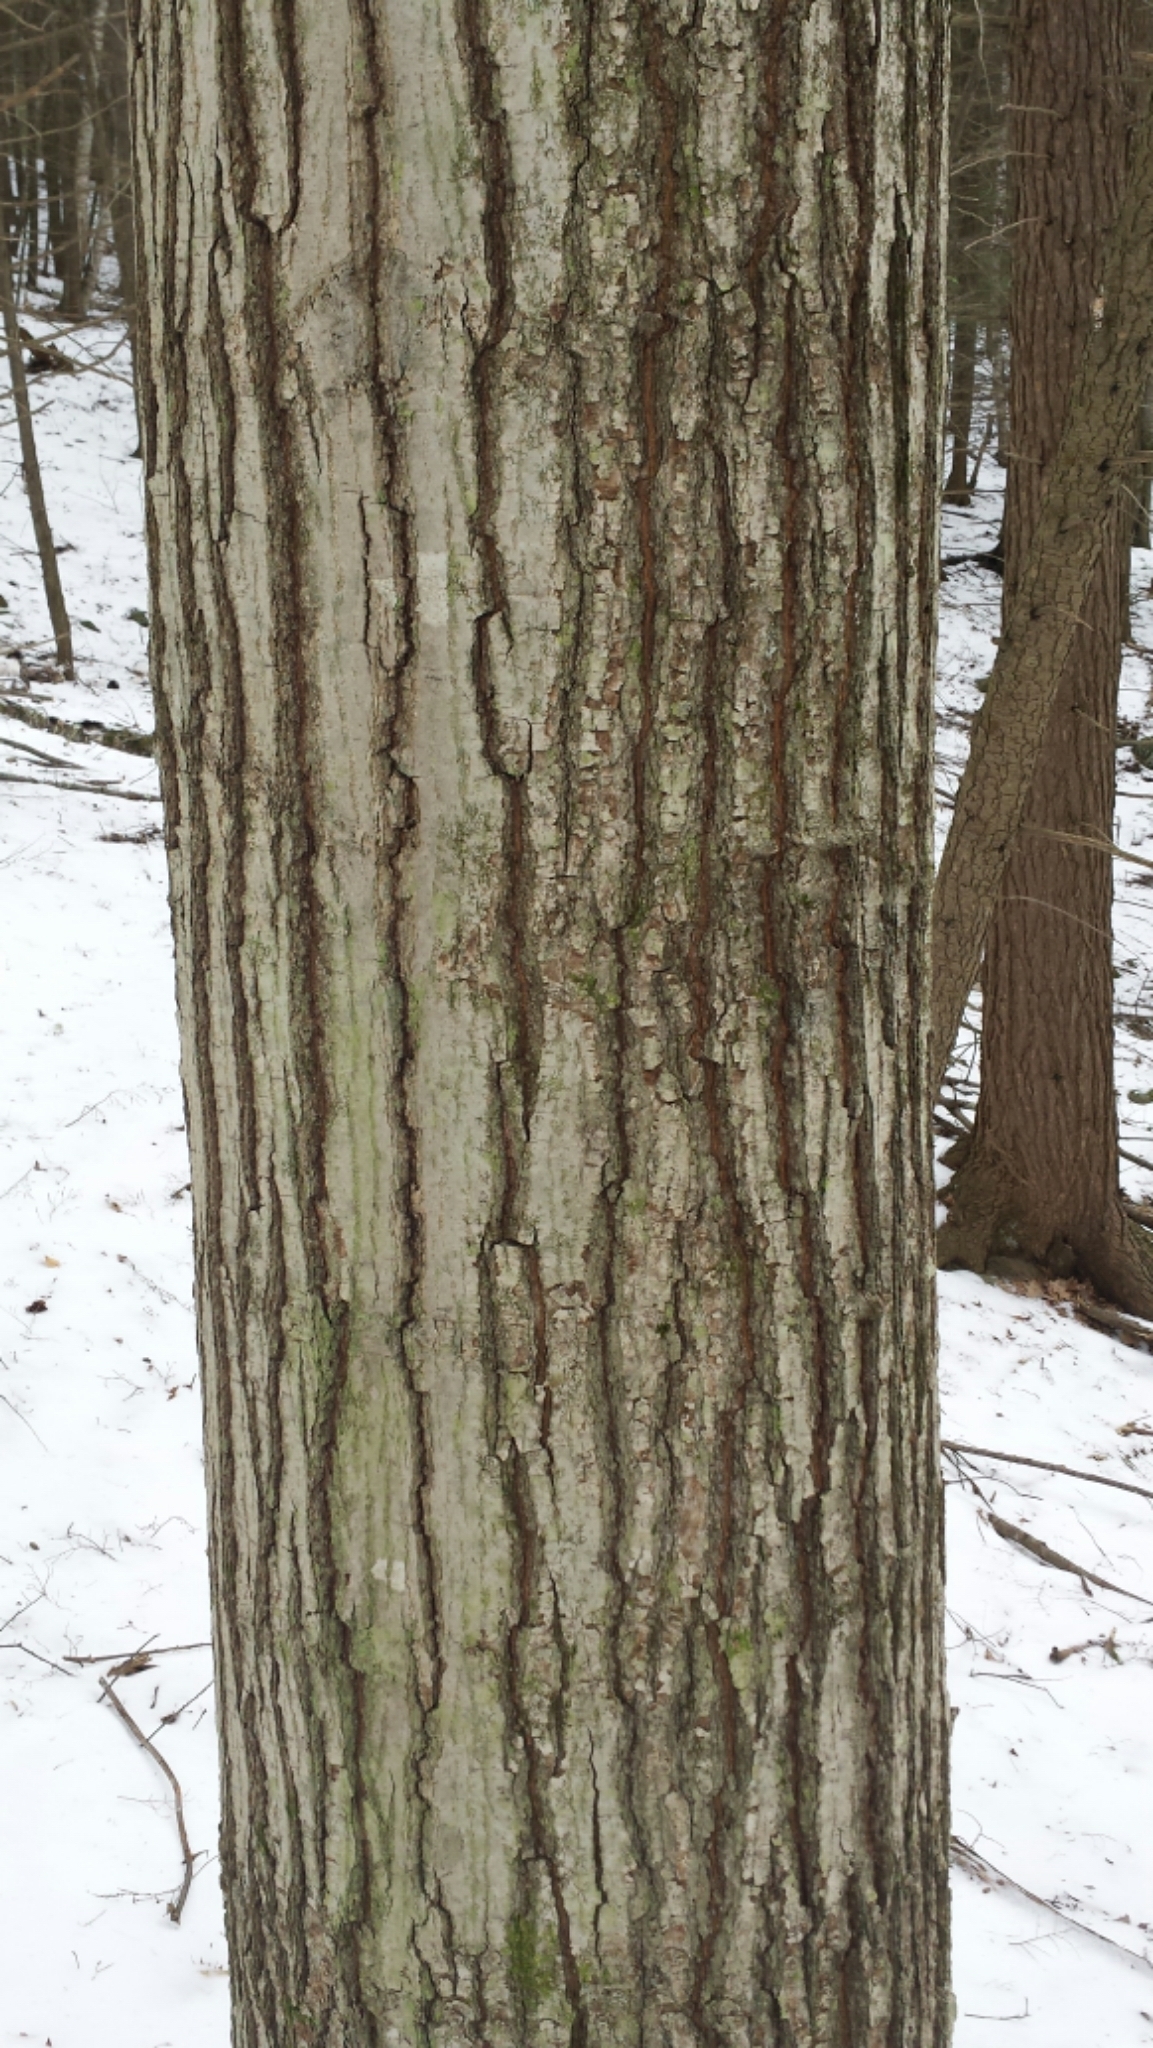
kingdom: Plantae
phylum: Tracheophyta
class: Magnoliopsida
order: Fagales
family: Fagaceae
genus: Quercus
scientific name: Quercus rubra
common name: Red oak
